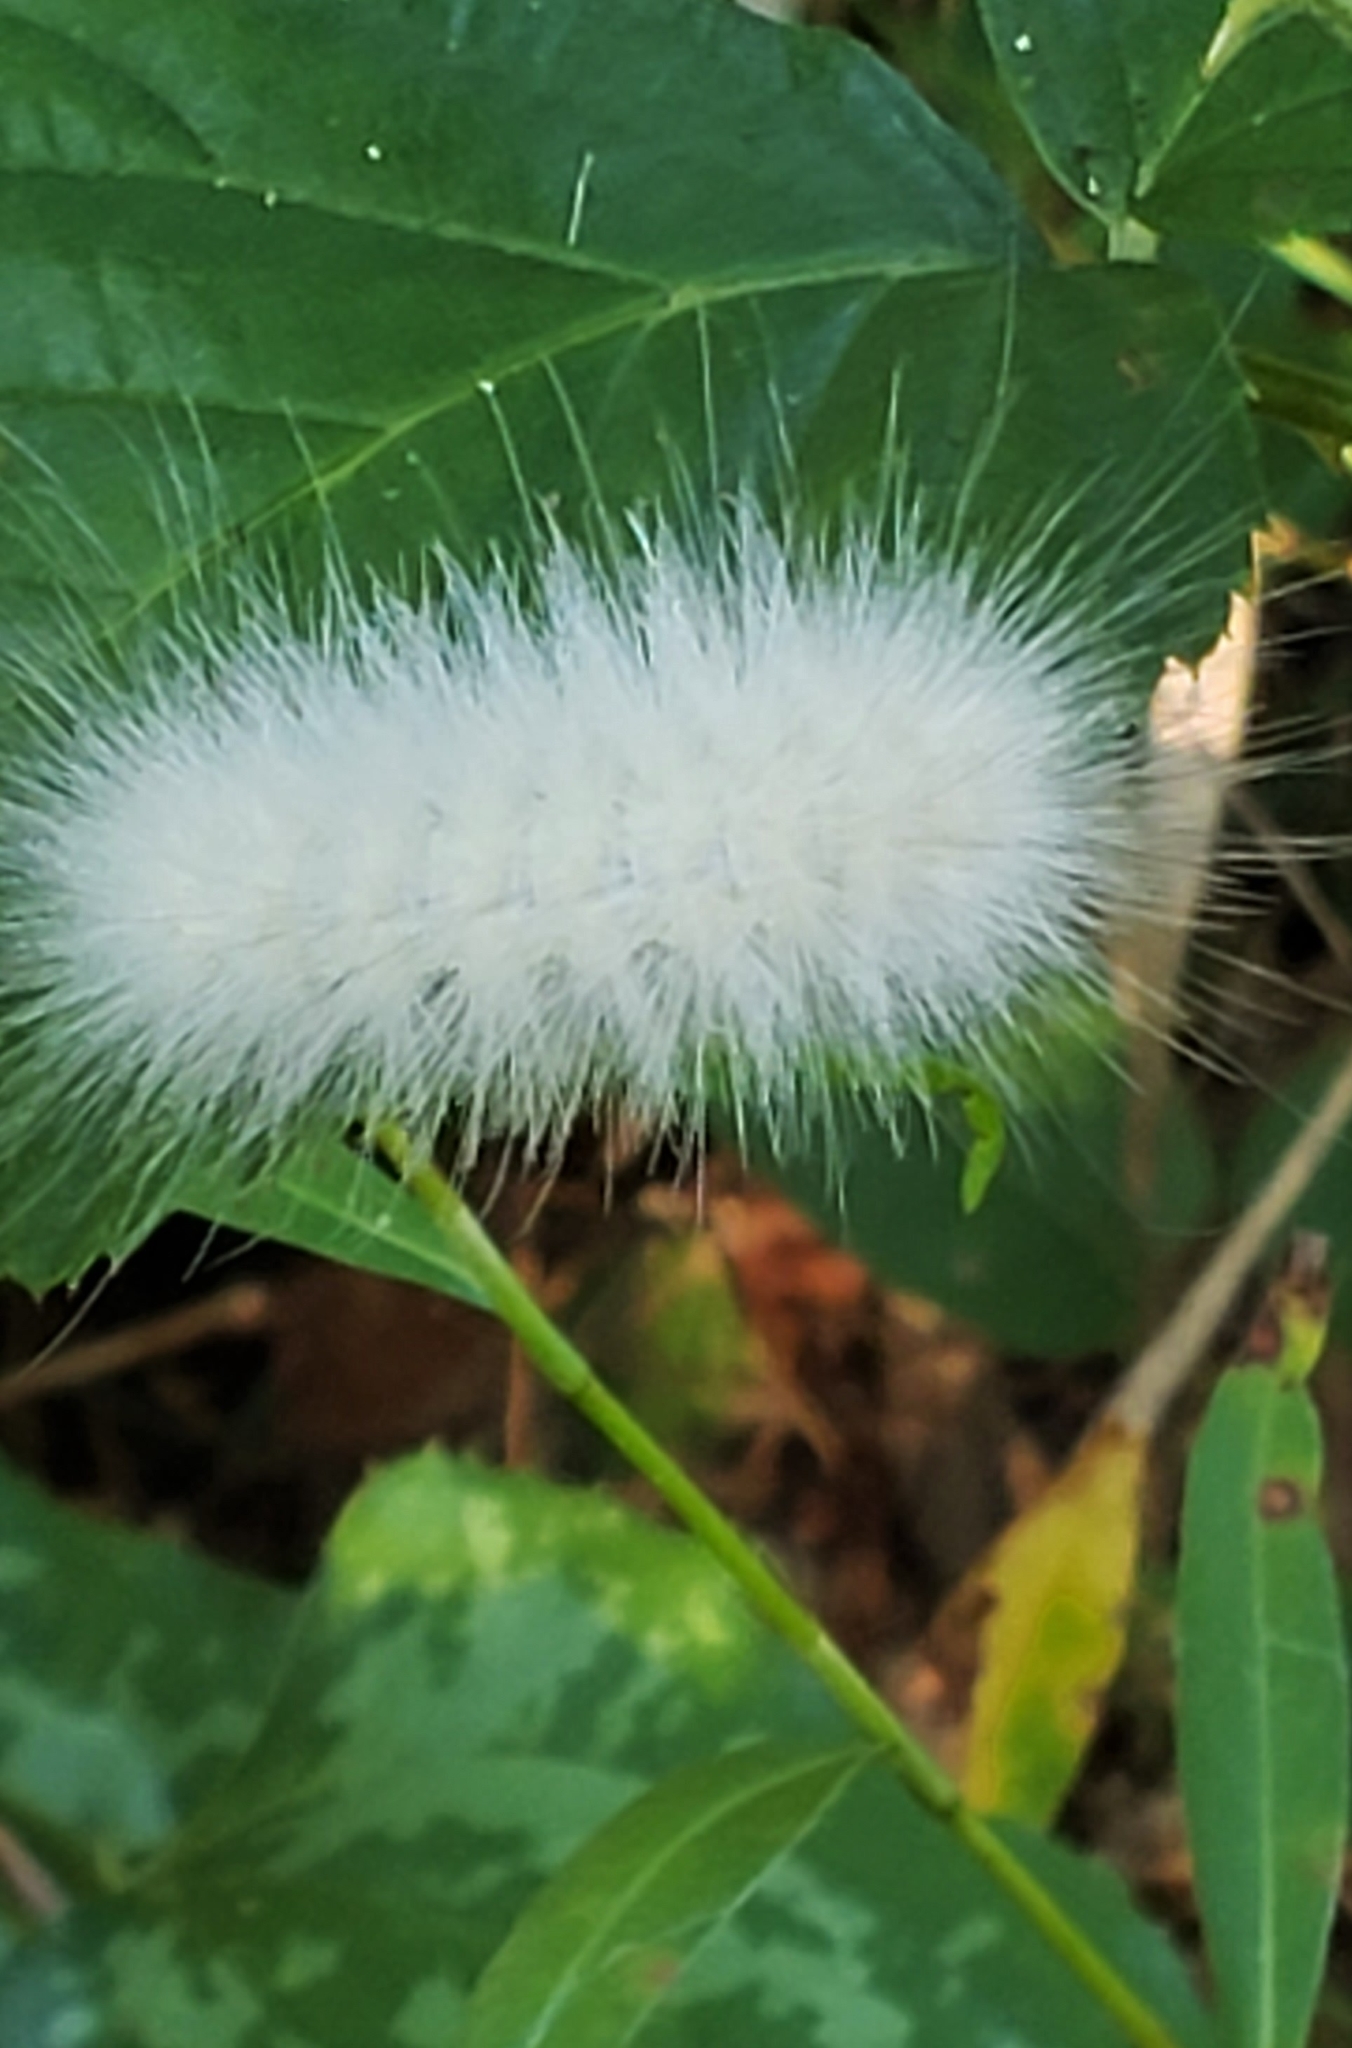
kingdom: Animalia
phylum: Arthropoda
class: Insecta
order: Lepidoptera
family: Erebidae
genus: Spilosoma
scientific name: Spilosoma virginica
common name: Virginia tiger moth
